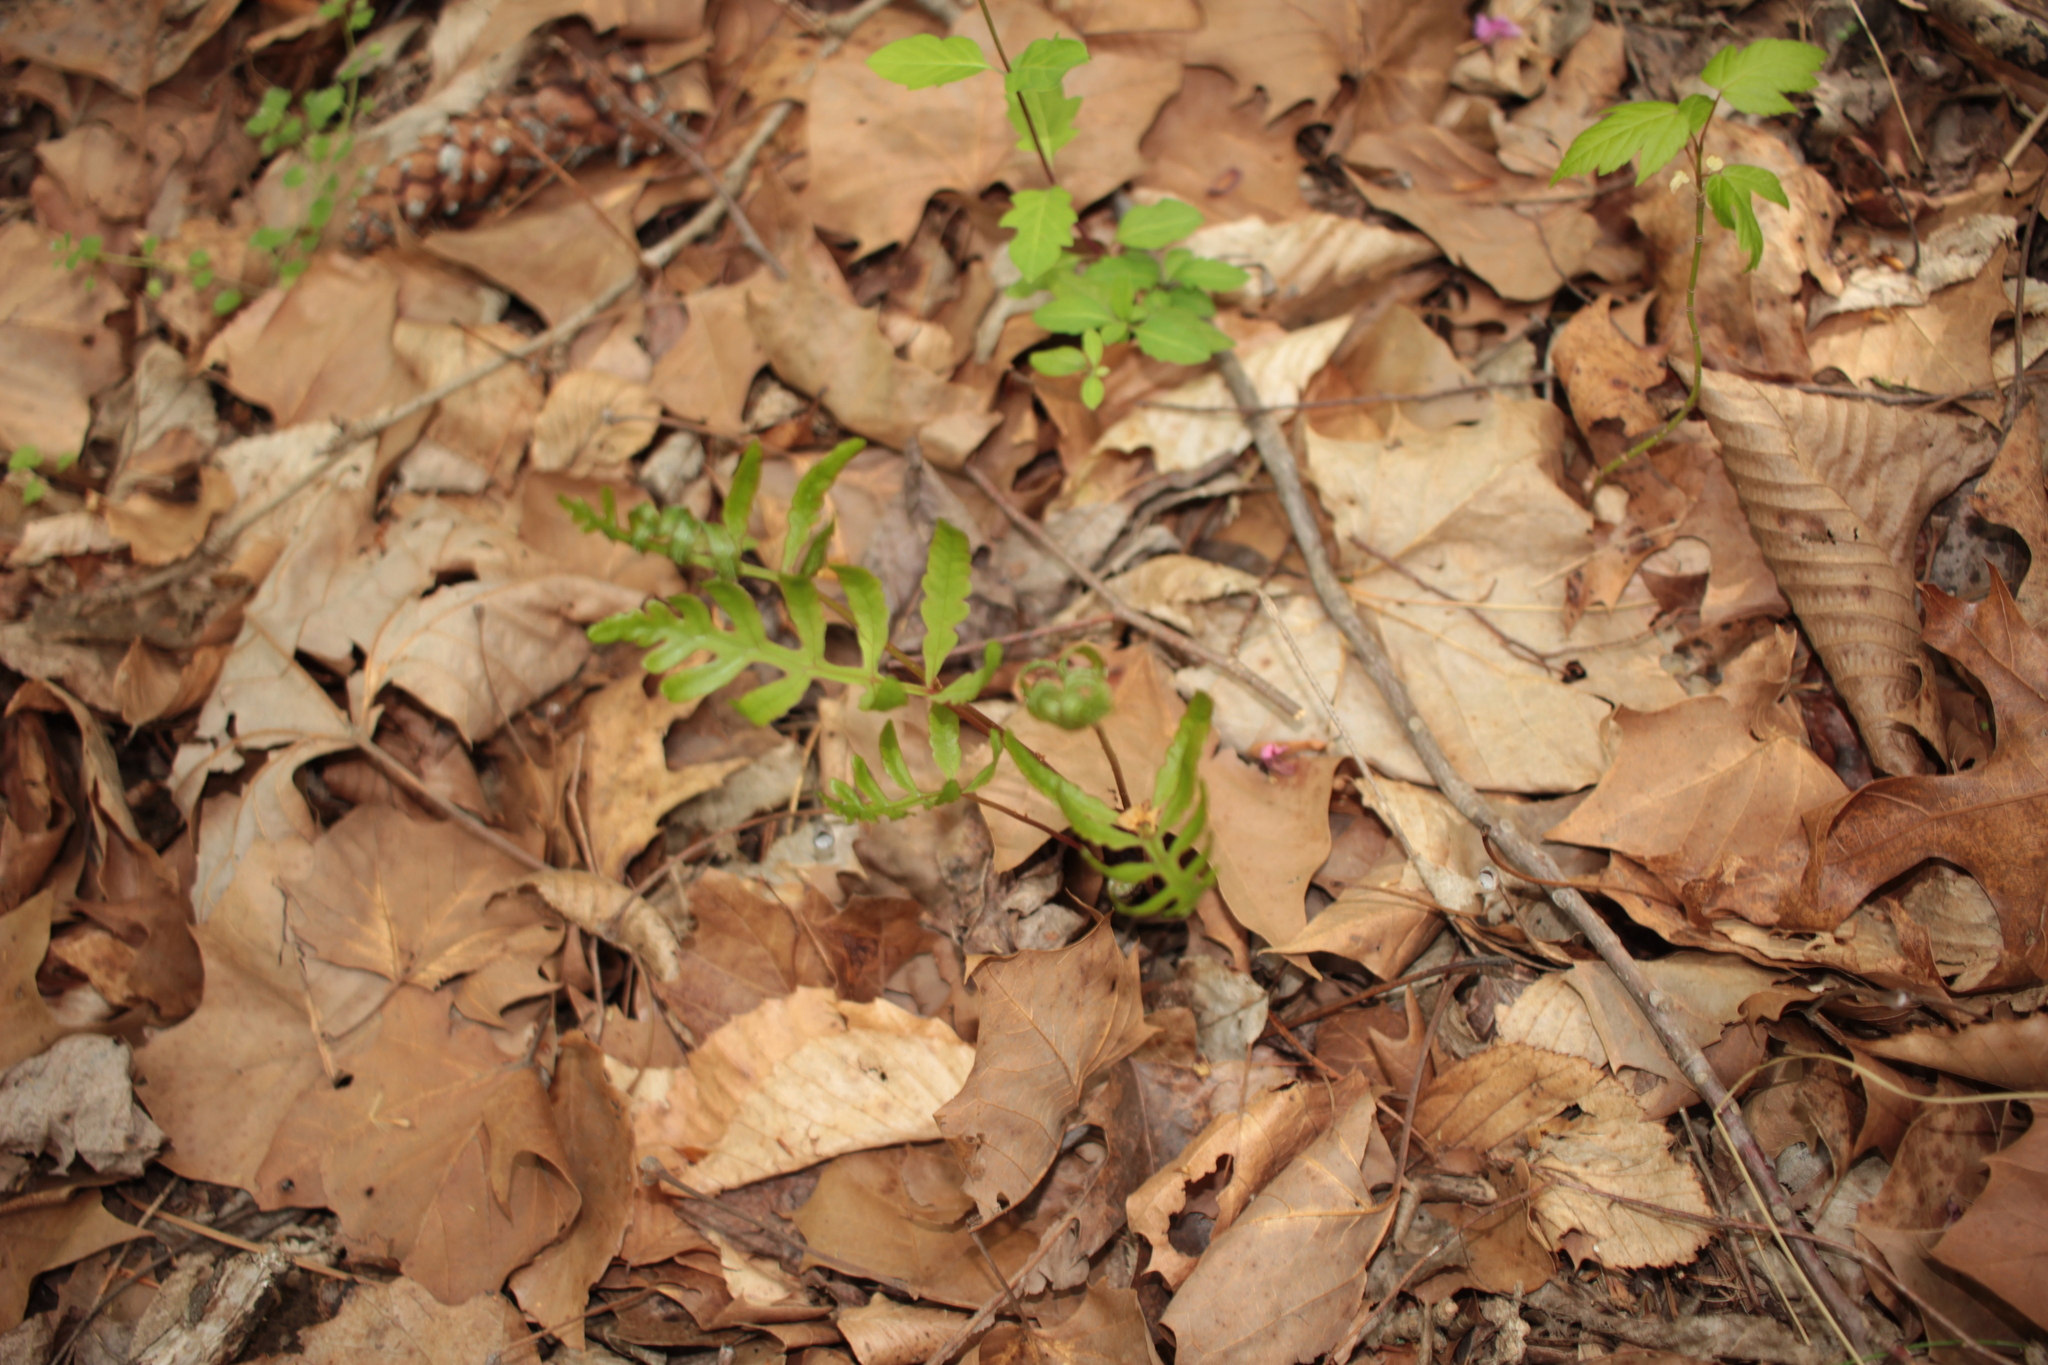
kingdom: Plantae
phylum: Tracheophyta
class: Polypodiopsida
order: Polypodiales
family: Onocleaceae
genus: Onoclea
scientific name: Onoclea sensibilis
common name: Sensitive fern
